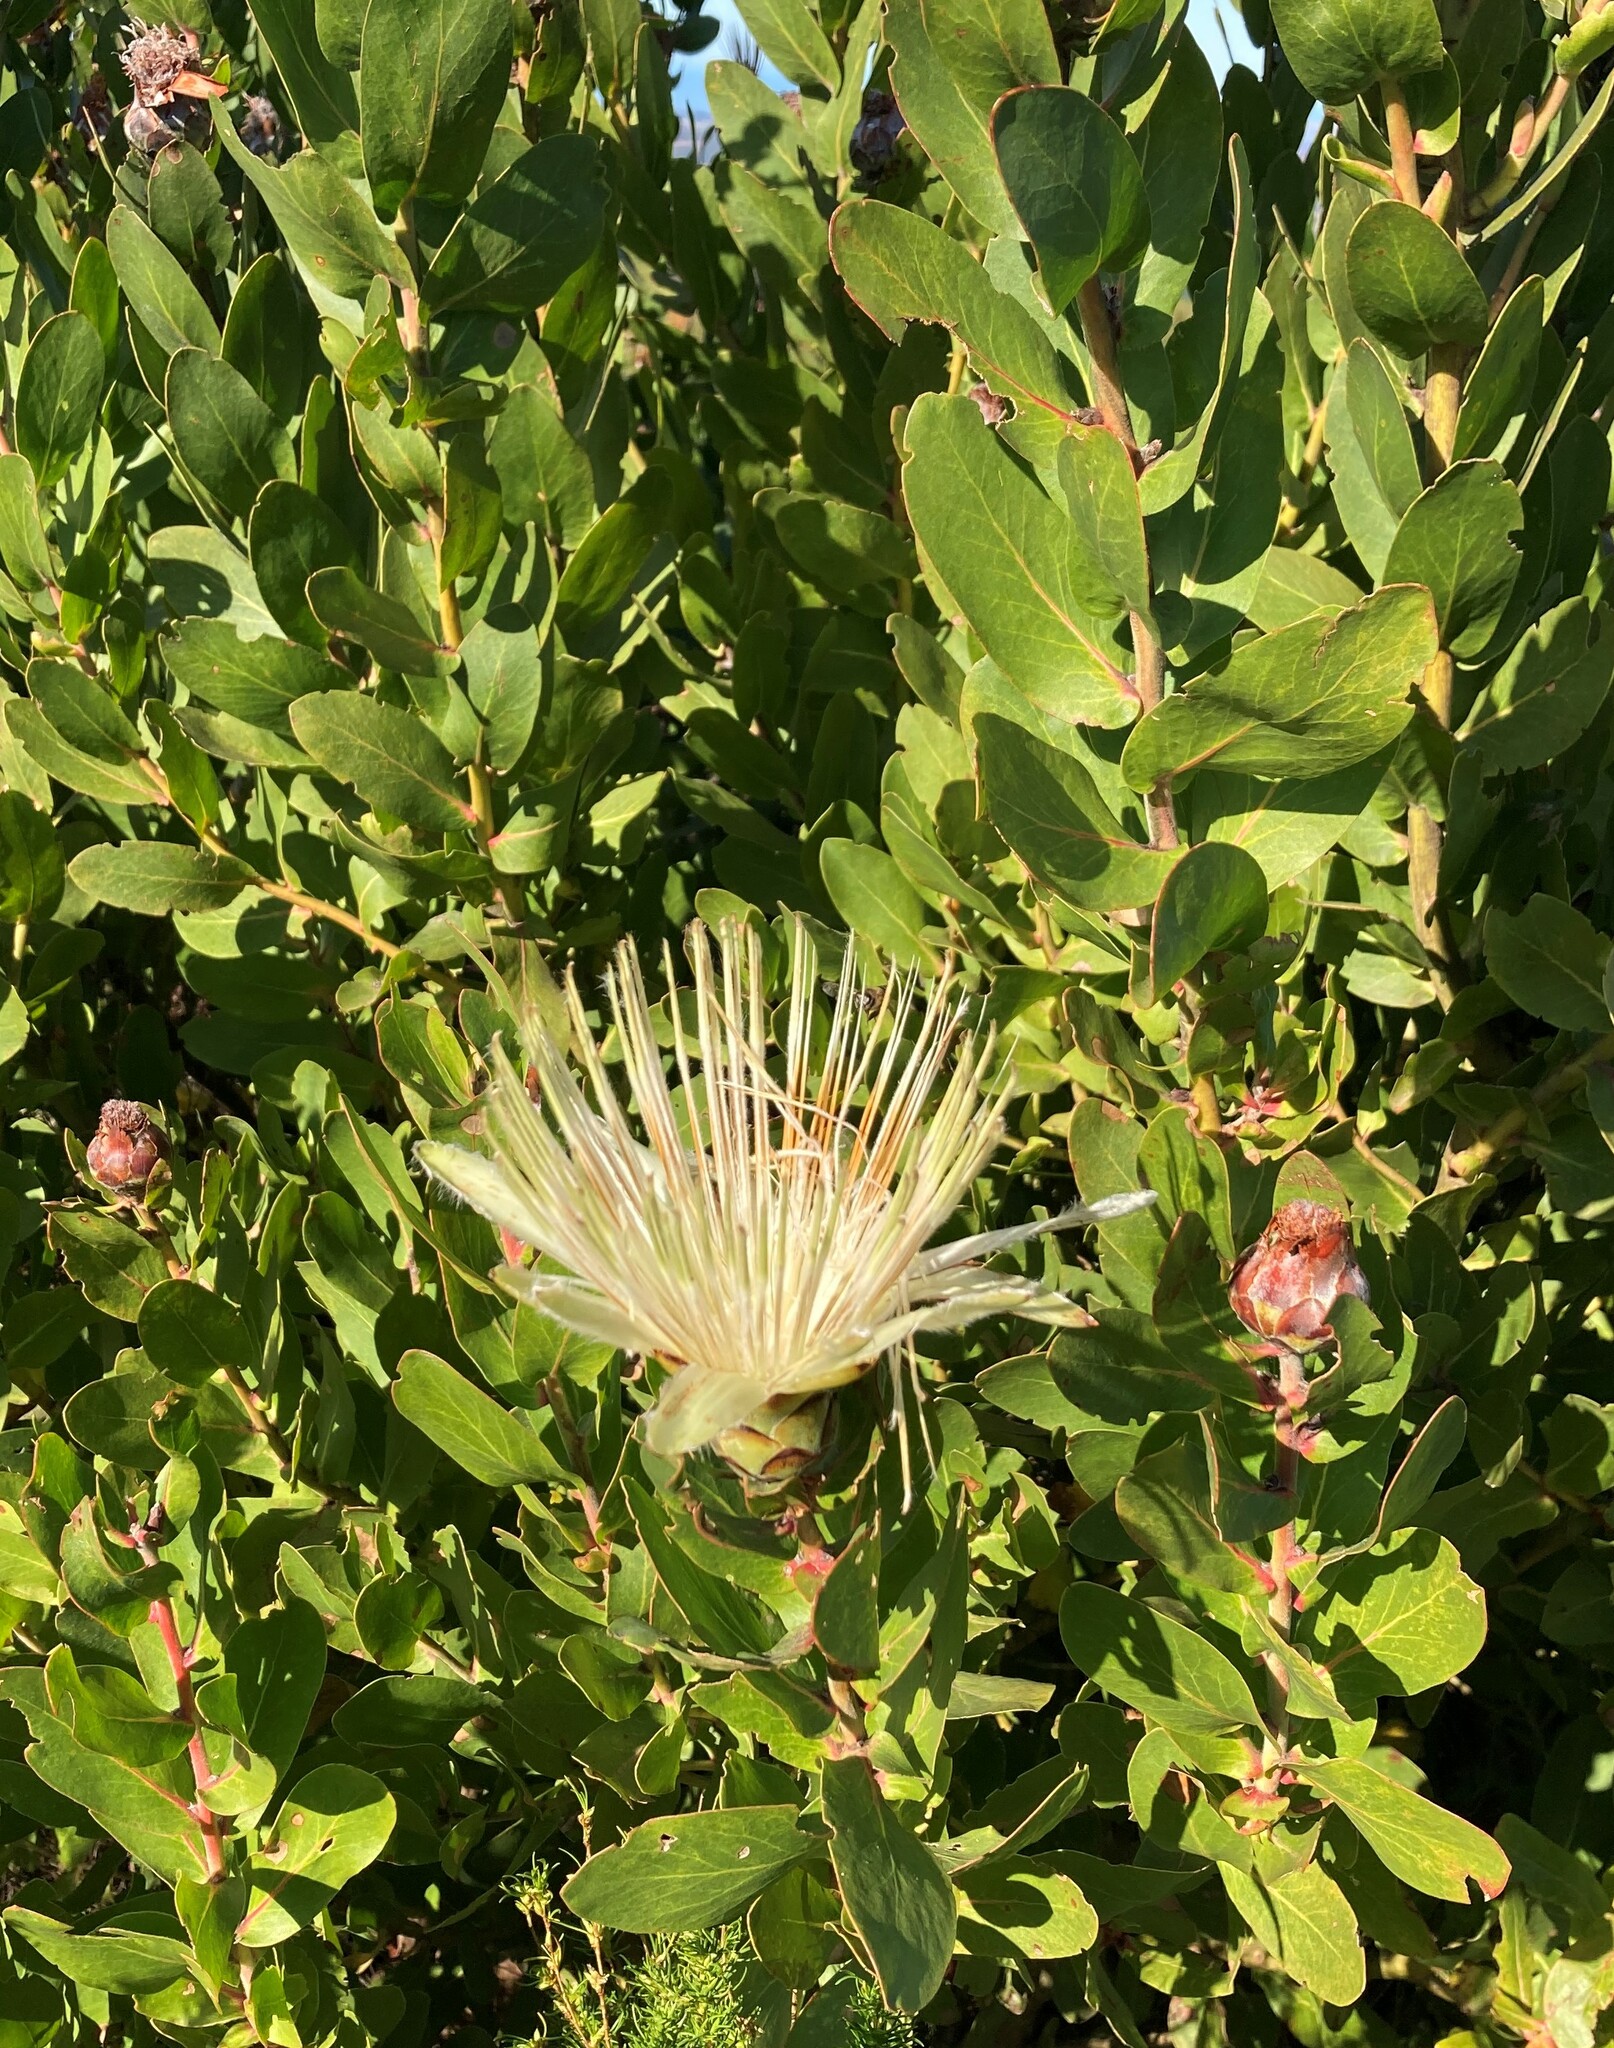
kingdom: Plantae
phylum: Tracheophyta
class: Magnoliopsida
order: Proteales
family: Proteaceae
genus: Protea
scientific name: Protea aurea
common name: Shuttlecock sugarbush
